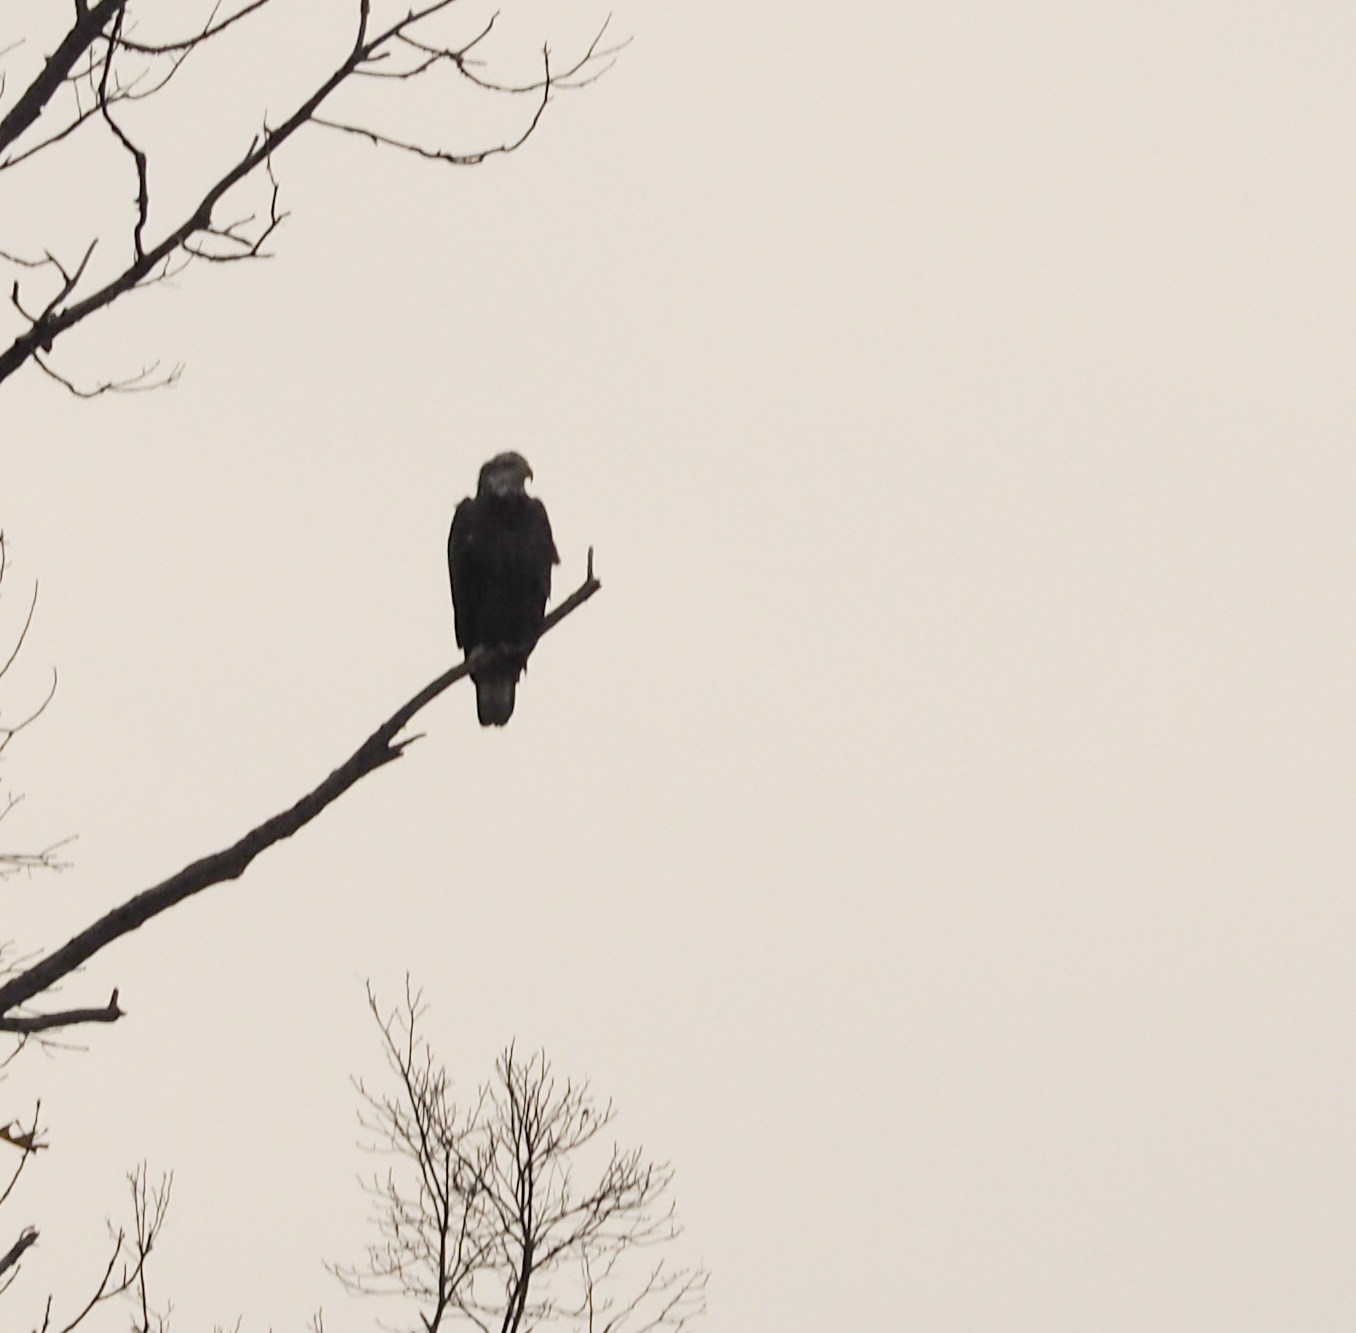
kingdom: Animalia
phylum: Chordata
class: Aves
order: Accipitriformes
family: Accipitridae
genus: Haliaeetus
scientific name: Haliaeetus leucocephalus
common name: Bald eagle
